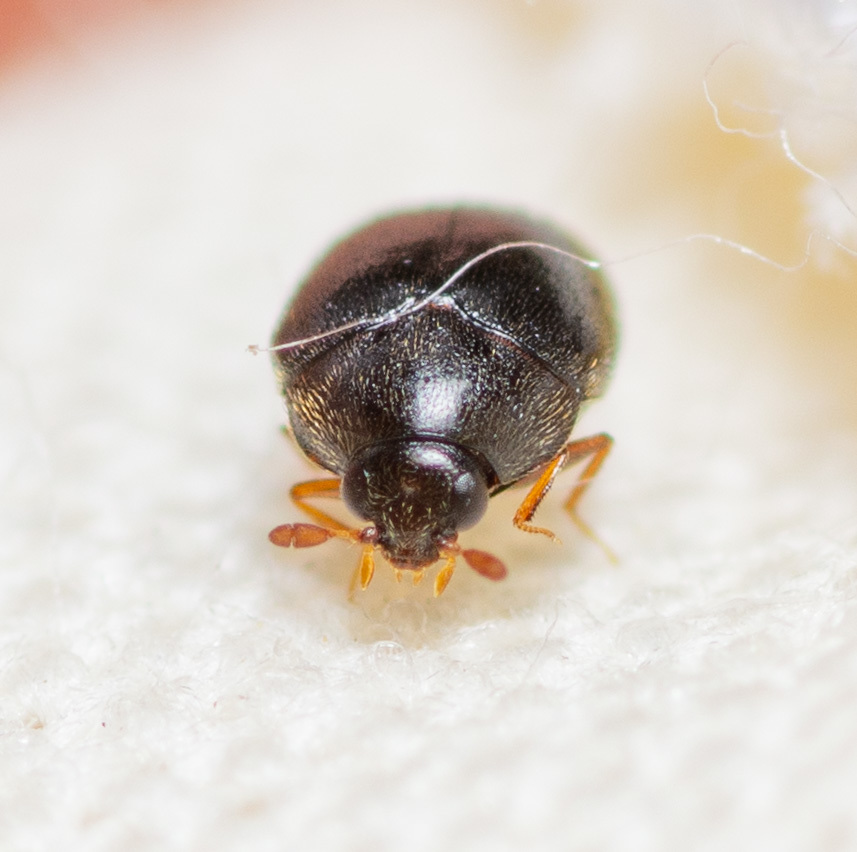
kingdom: Animalia
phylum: Arthropoda
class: Insecta
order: Coleoptera
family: Dermestidae
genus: Cryptorhopalum
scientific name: Cryptorhopalum ruficorne
